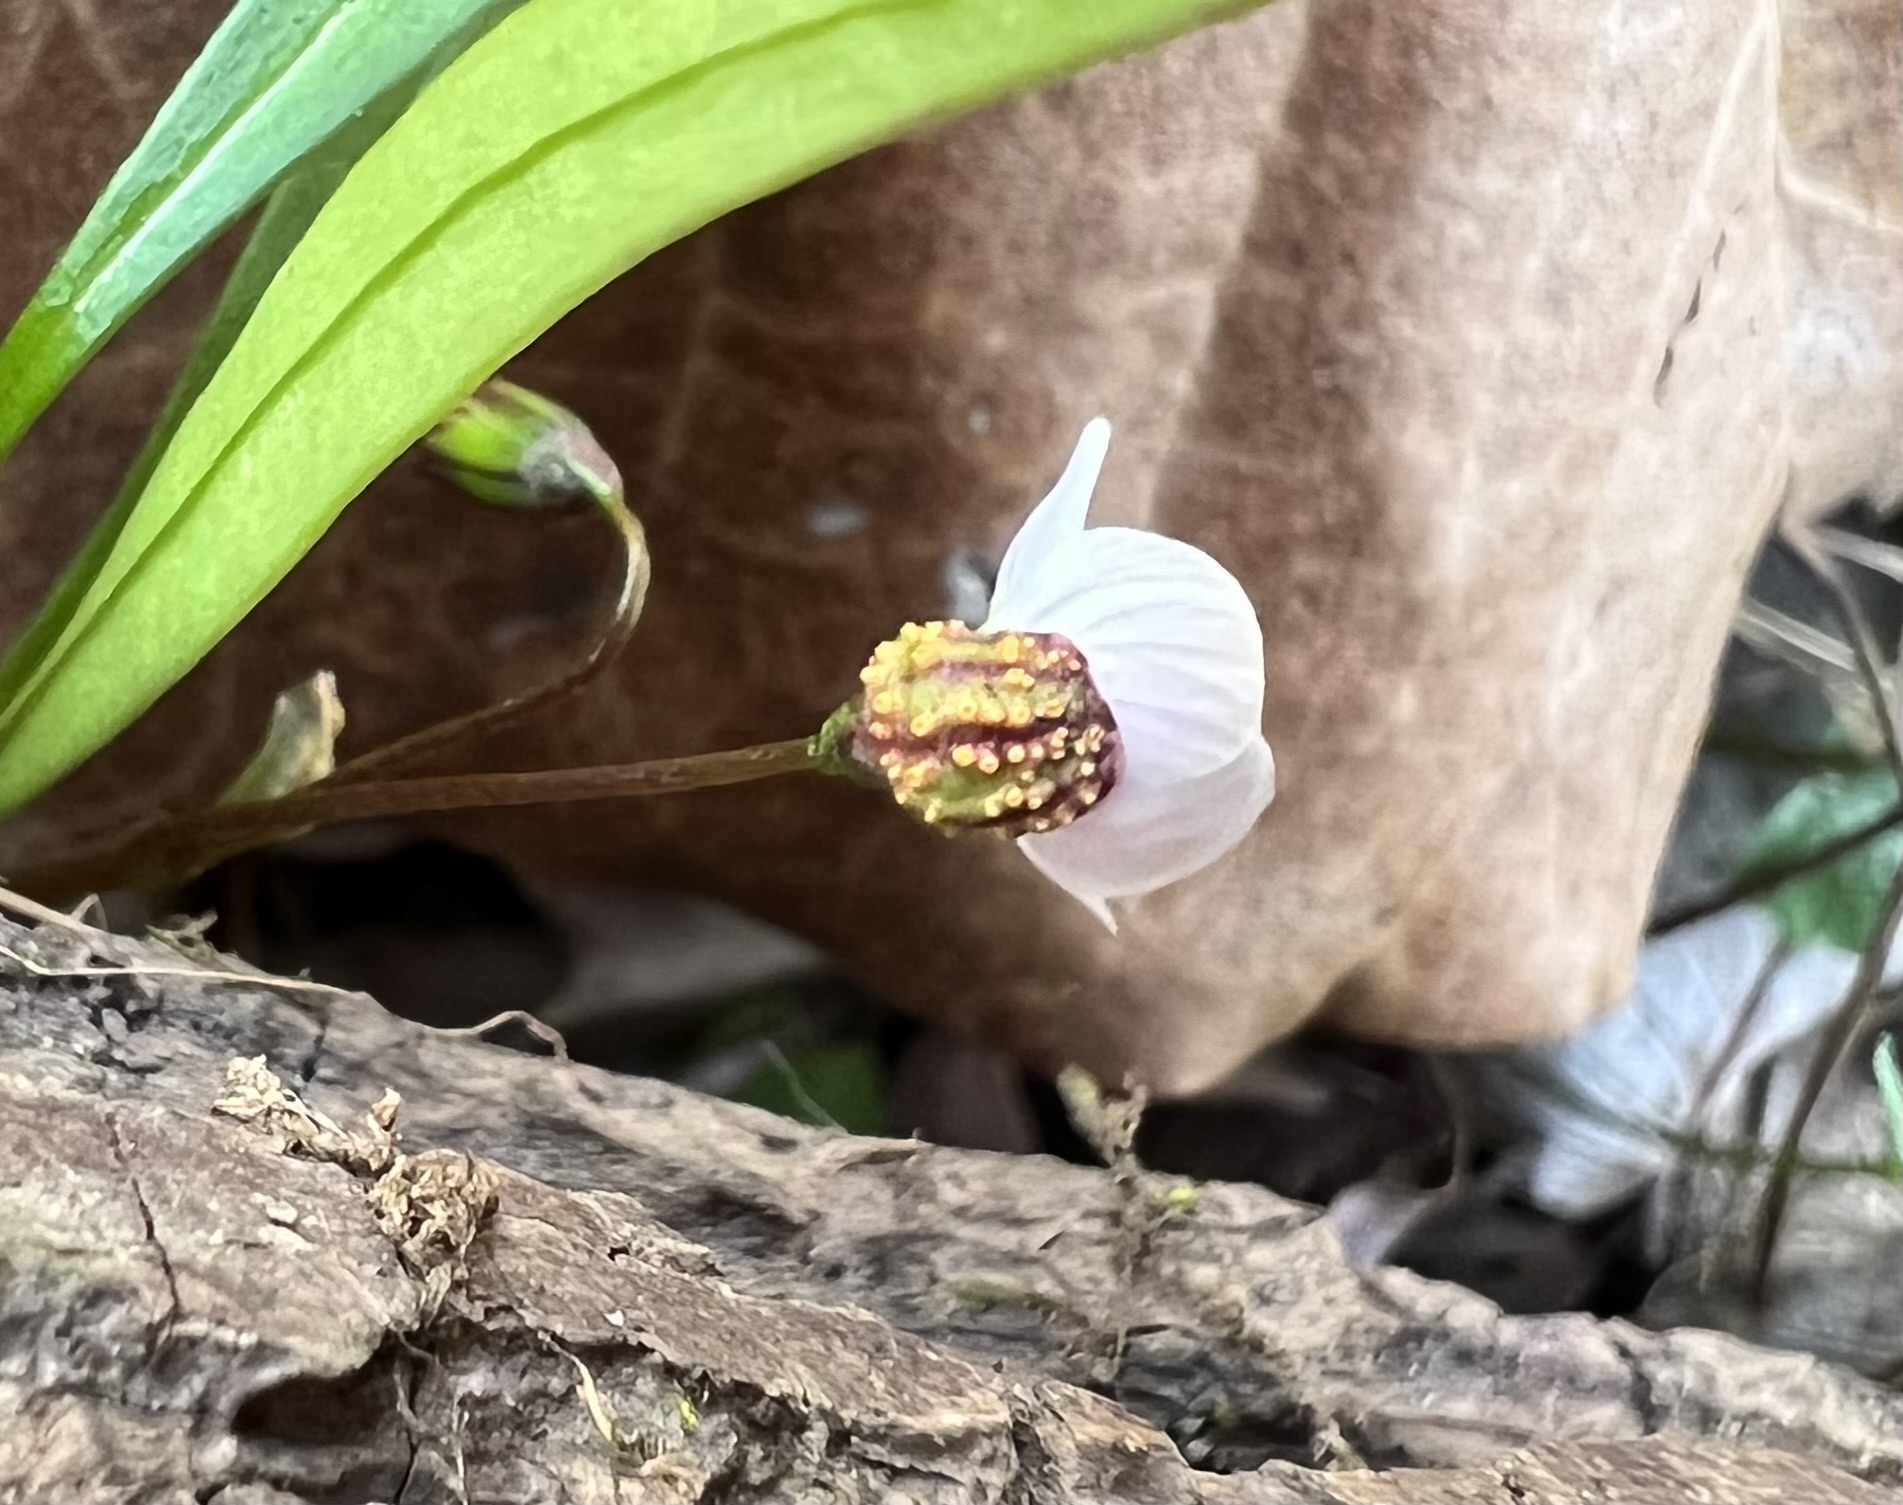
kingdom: Fungi
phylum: Basidiomycota
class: Pucciniomycetes
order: Pucciniales
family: Pucciniaceae
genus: Puccinia
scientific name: Puccinia mariae-wilsoniae
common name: Spring beauty rust
